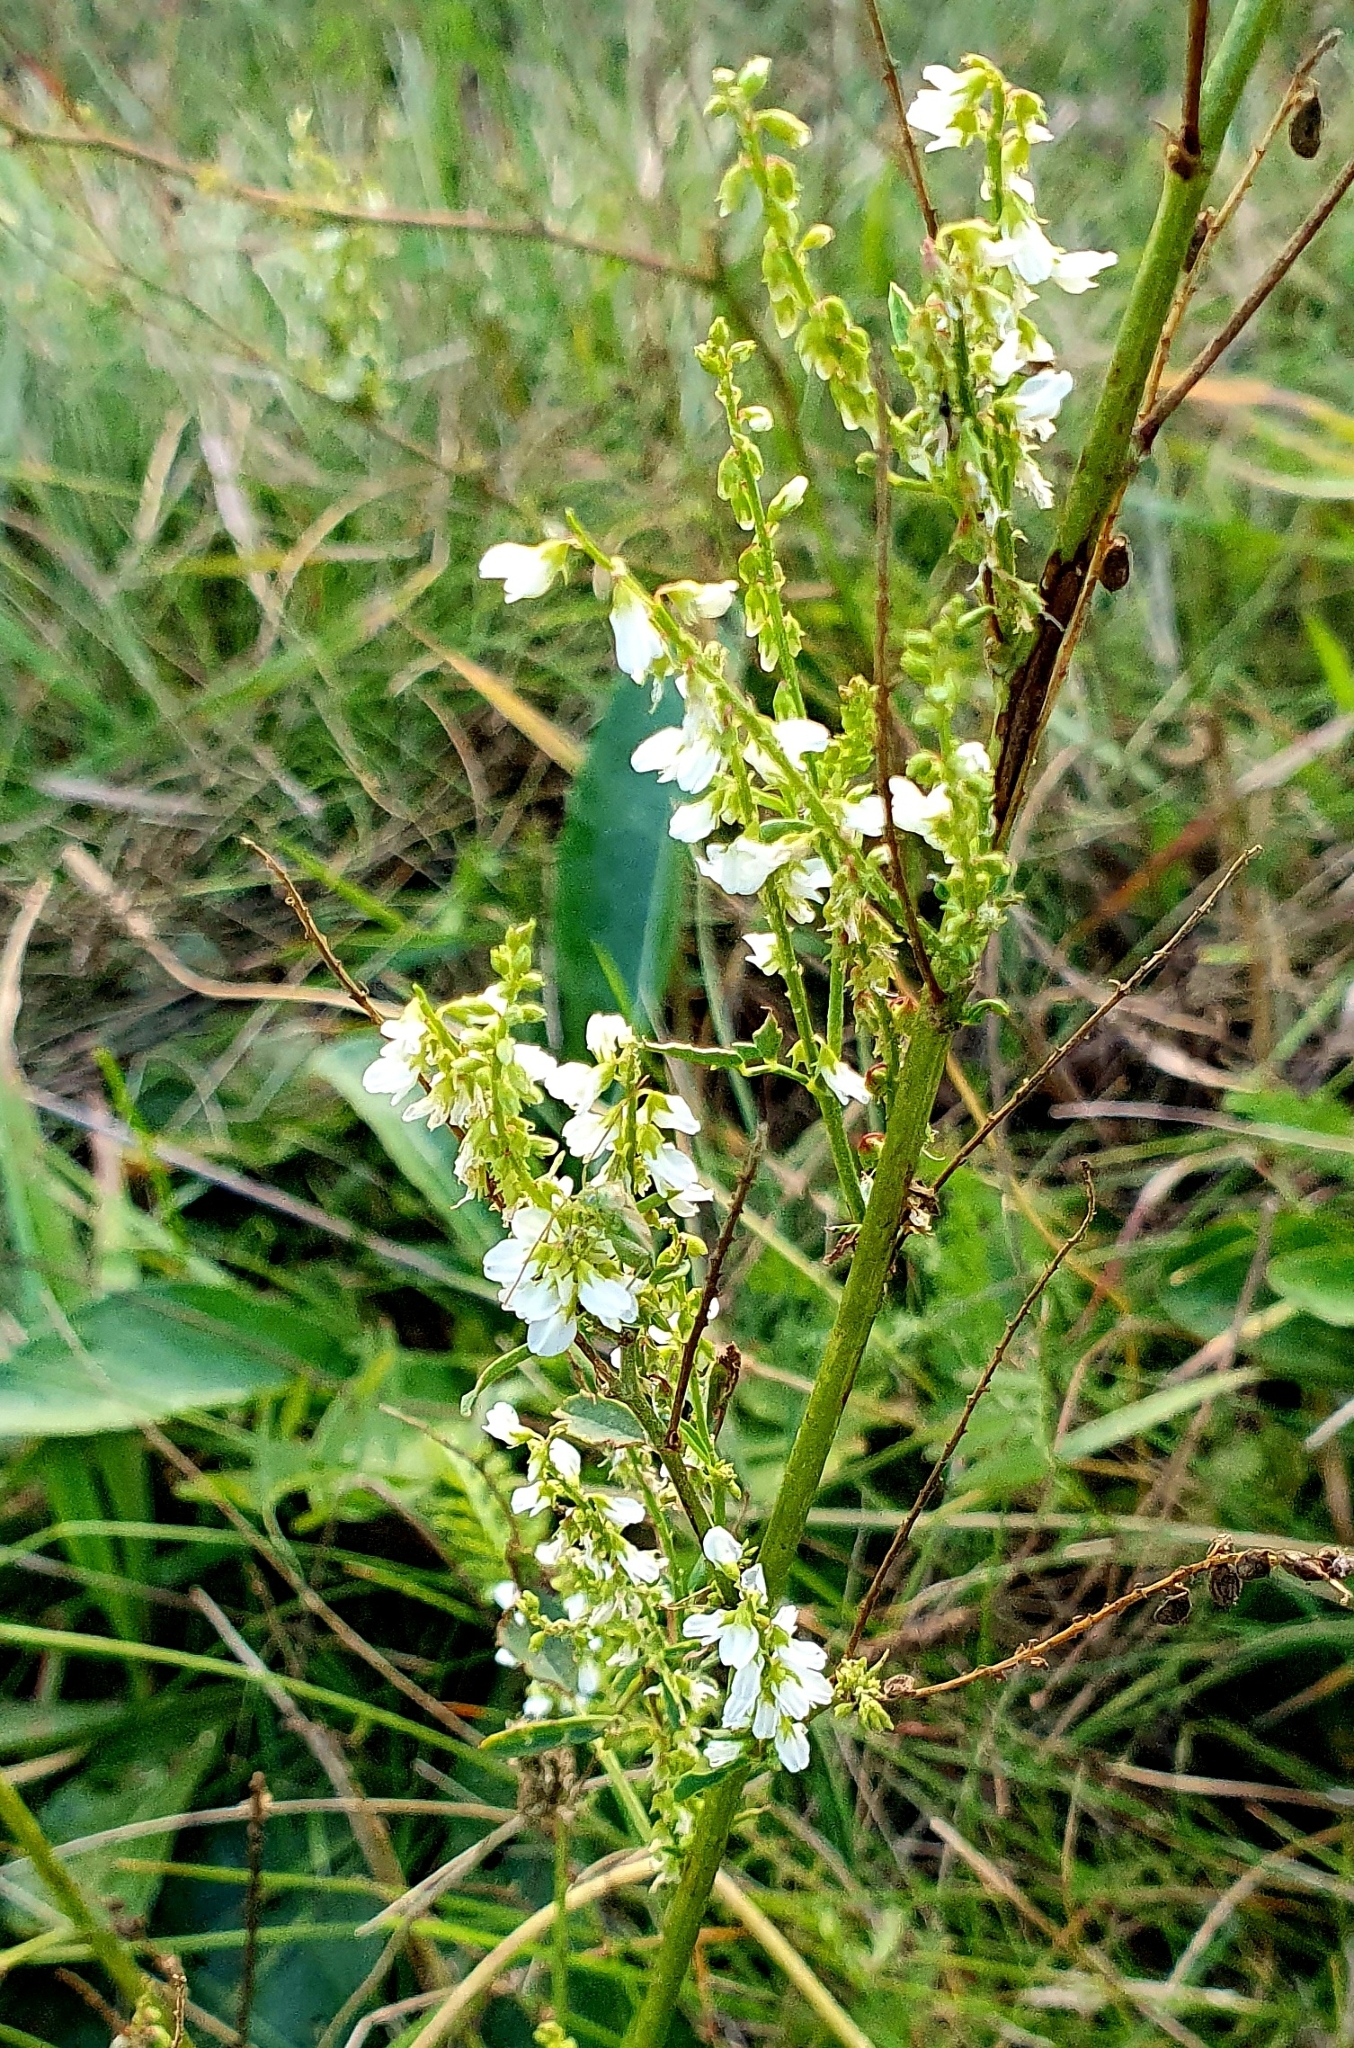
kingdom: Plantae
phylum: Tracheophyta
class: Magnoliopsida
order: Fabales
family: Fabaceae
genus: Melilotus
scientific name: Melilotus albus
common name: White melilot
